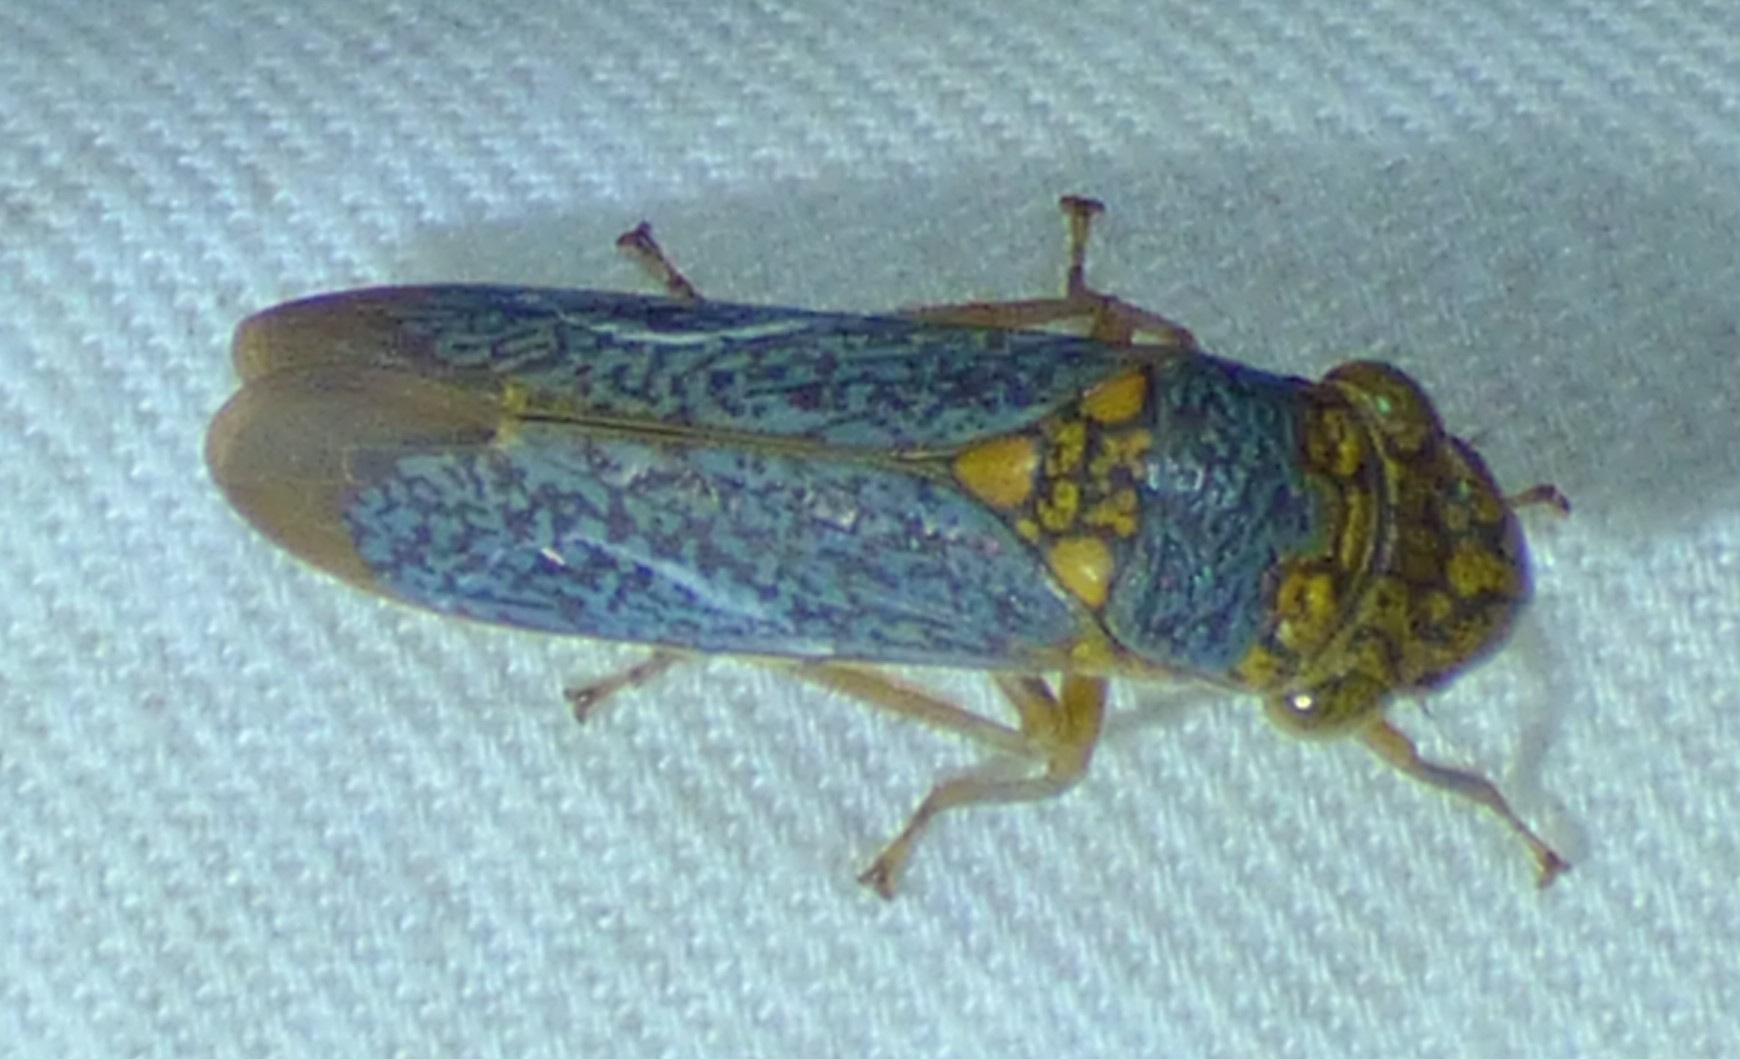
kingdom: Animalia
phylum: Arthropoda
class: Insecta
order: Hemiptera
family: Cicadellidae
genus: Oncometopia
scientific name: Oncometopia orbona
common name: Broad-headed sharpshooter
